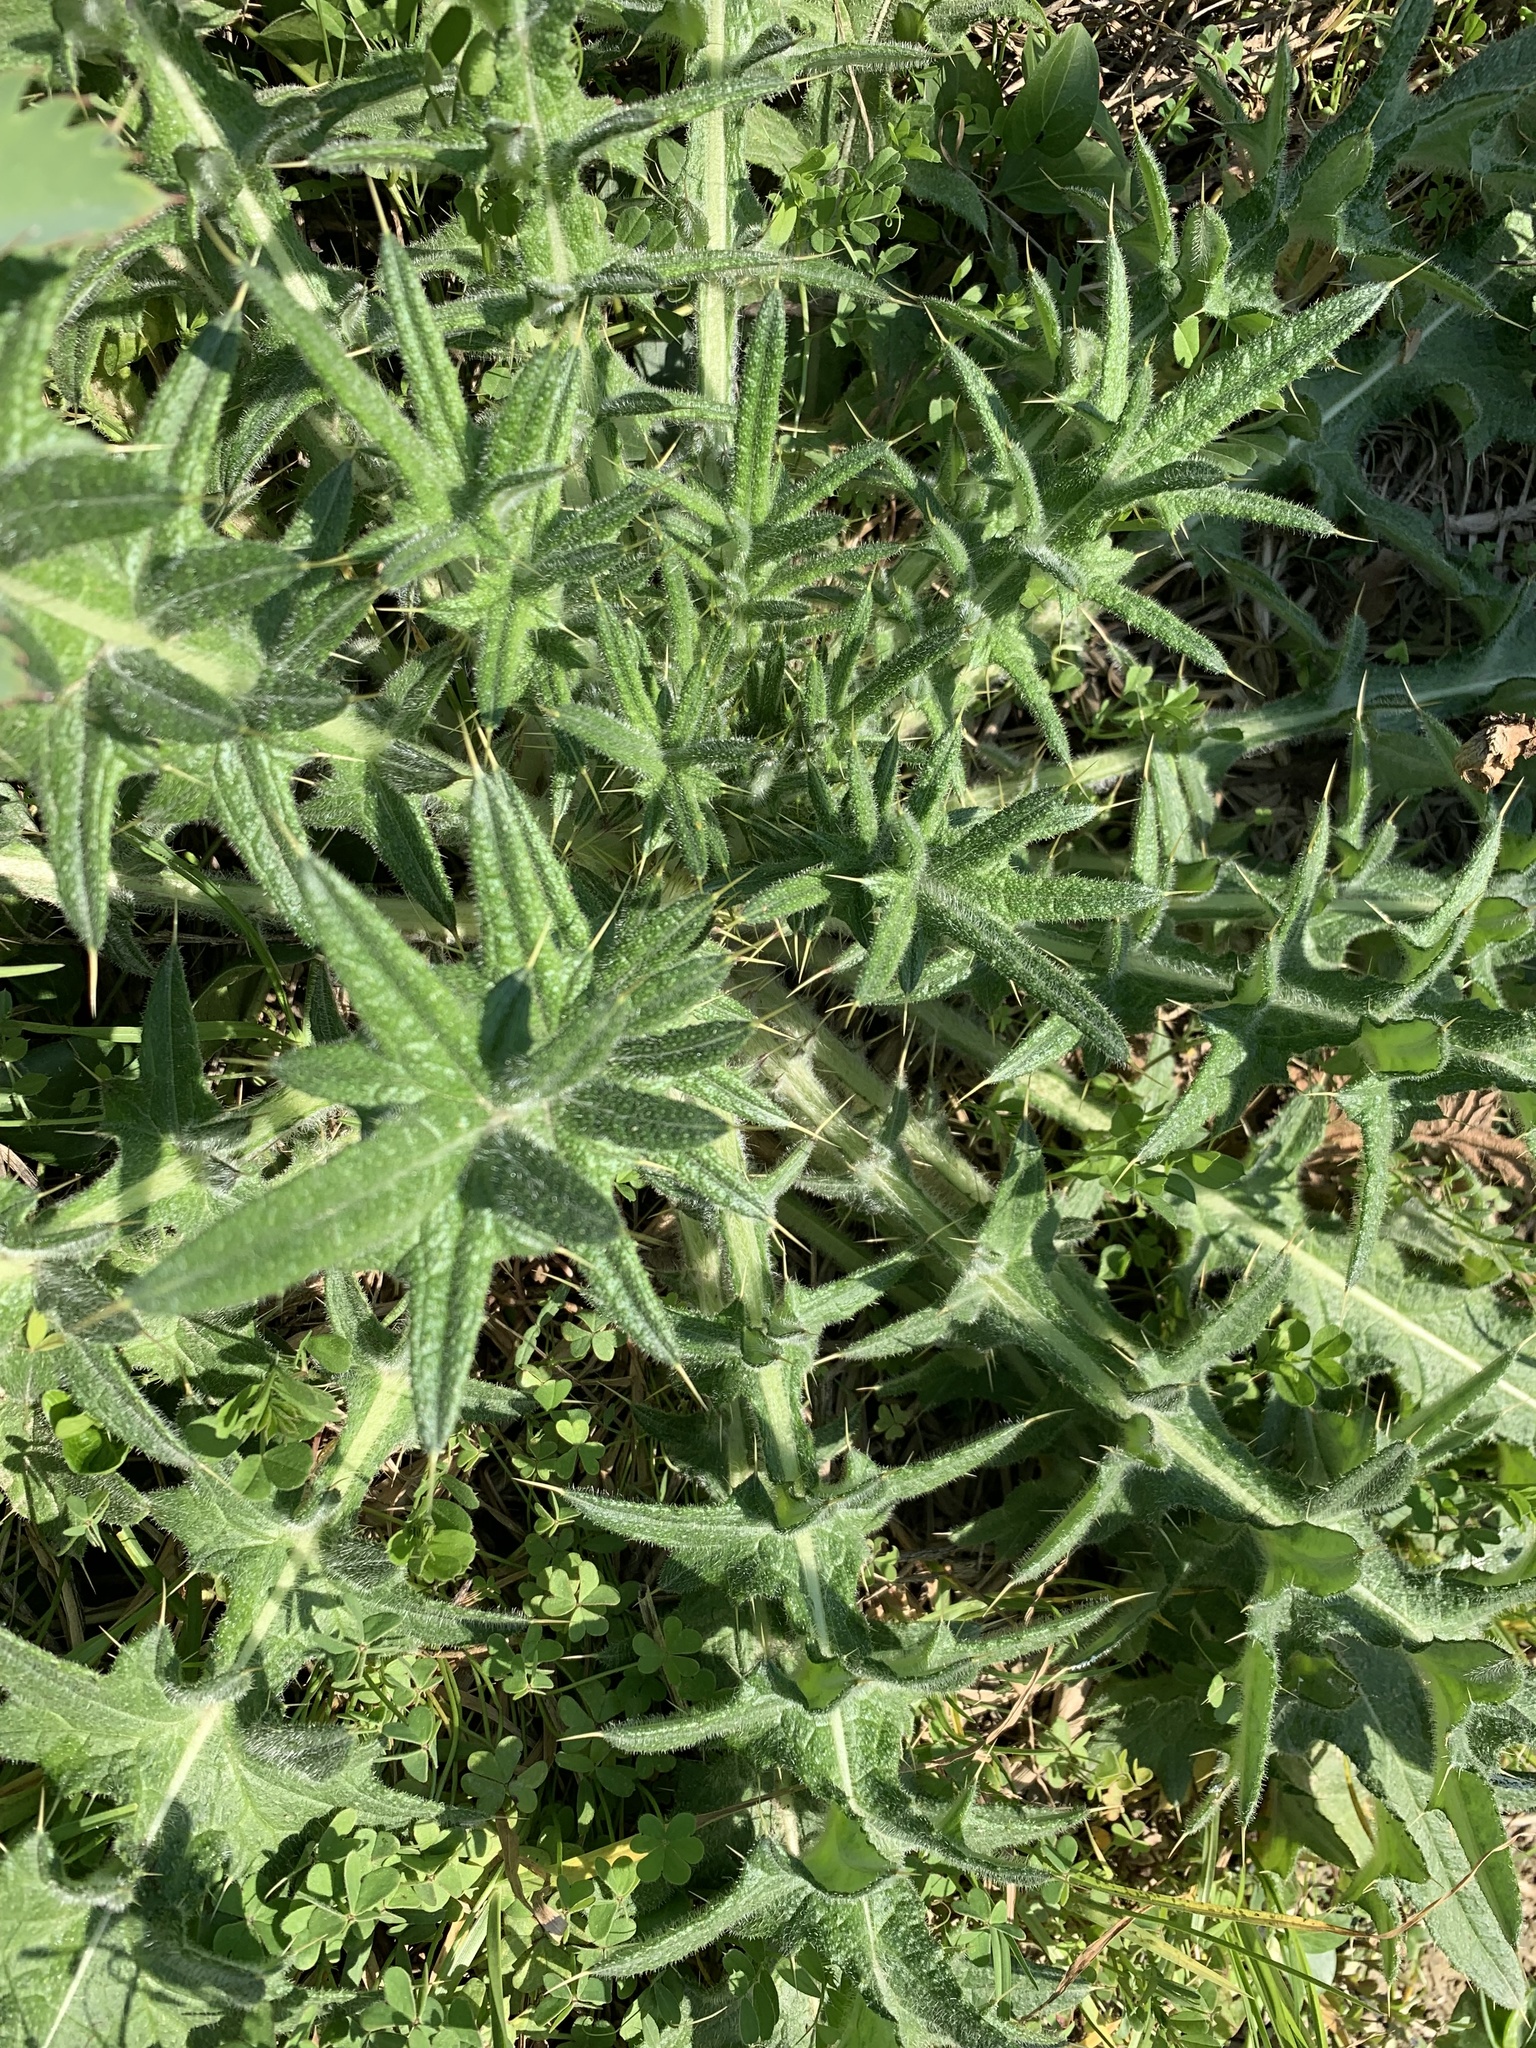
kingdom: Plantae
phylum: Tracheophyta
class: Magnoliopsida
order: Asterales
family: Asteraceae
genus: Cirsium
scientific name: Cirsium vulgare
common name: Bull thistle
